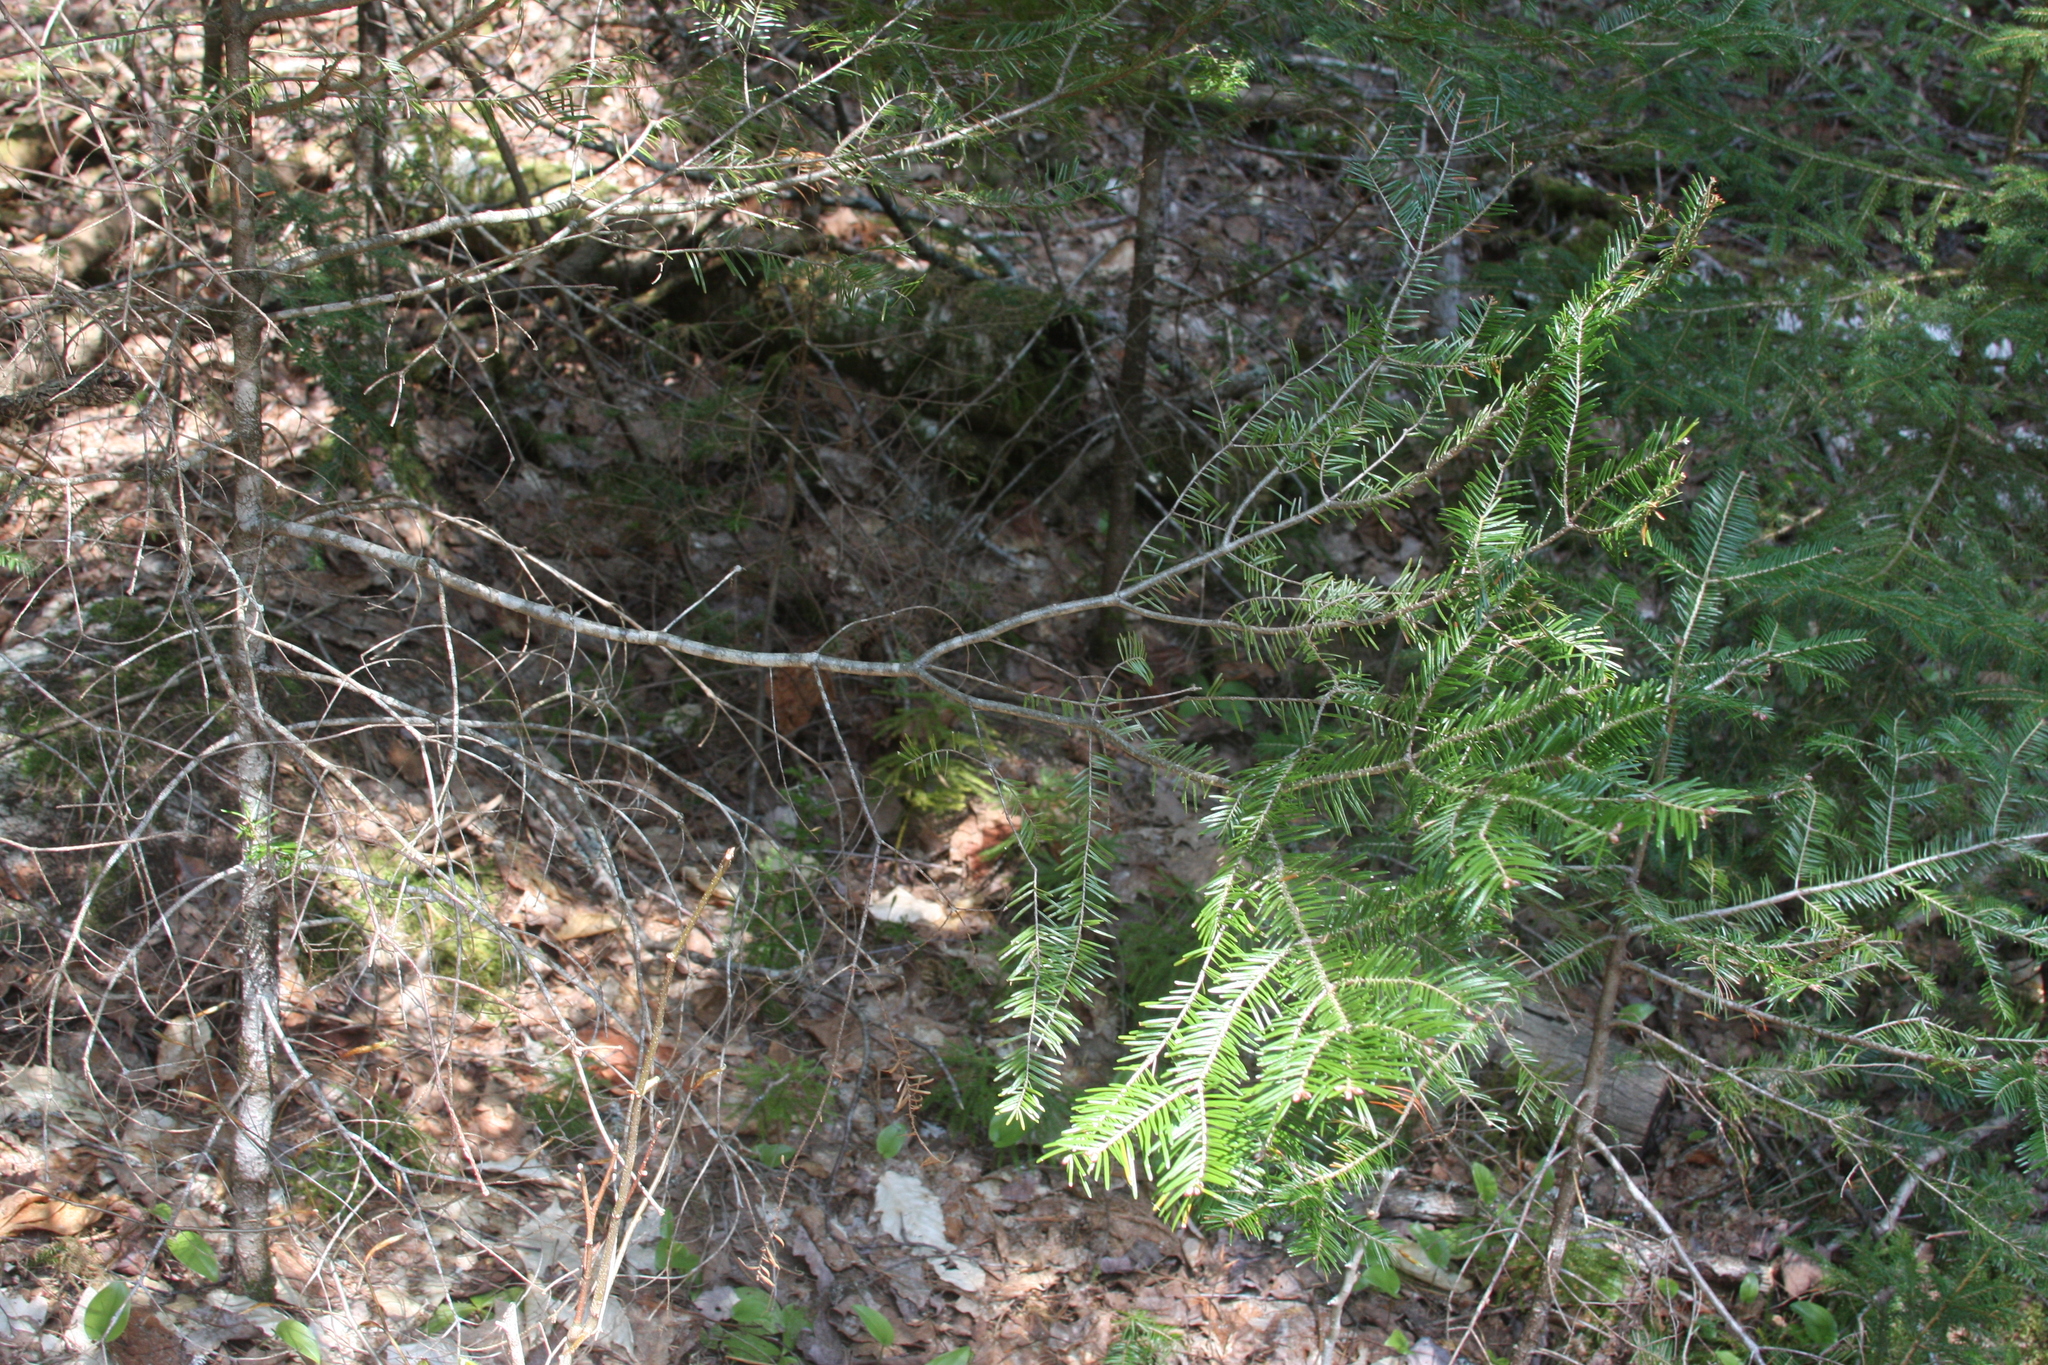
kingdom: Plantae
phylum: Tracheophyta
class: Pinopsida
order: Pinales
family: Pinaceae
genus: Abies
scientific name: Abies balsamea
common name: Balsam fir
